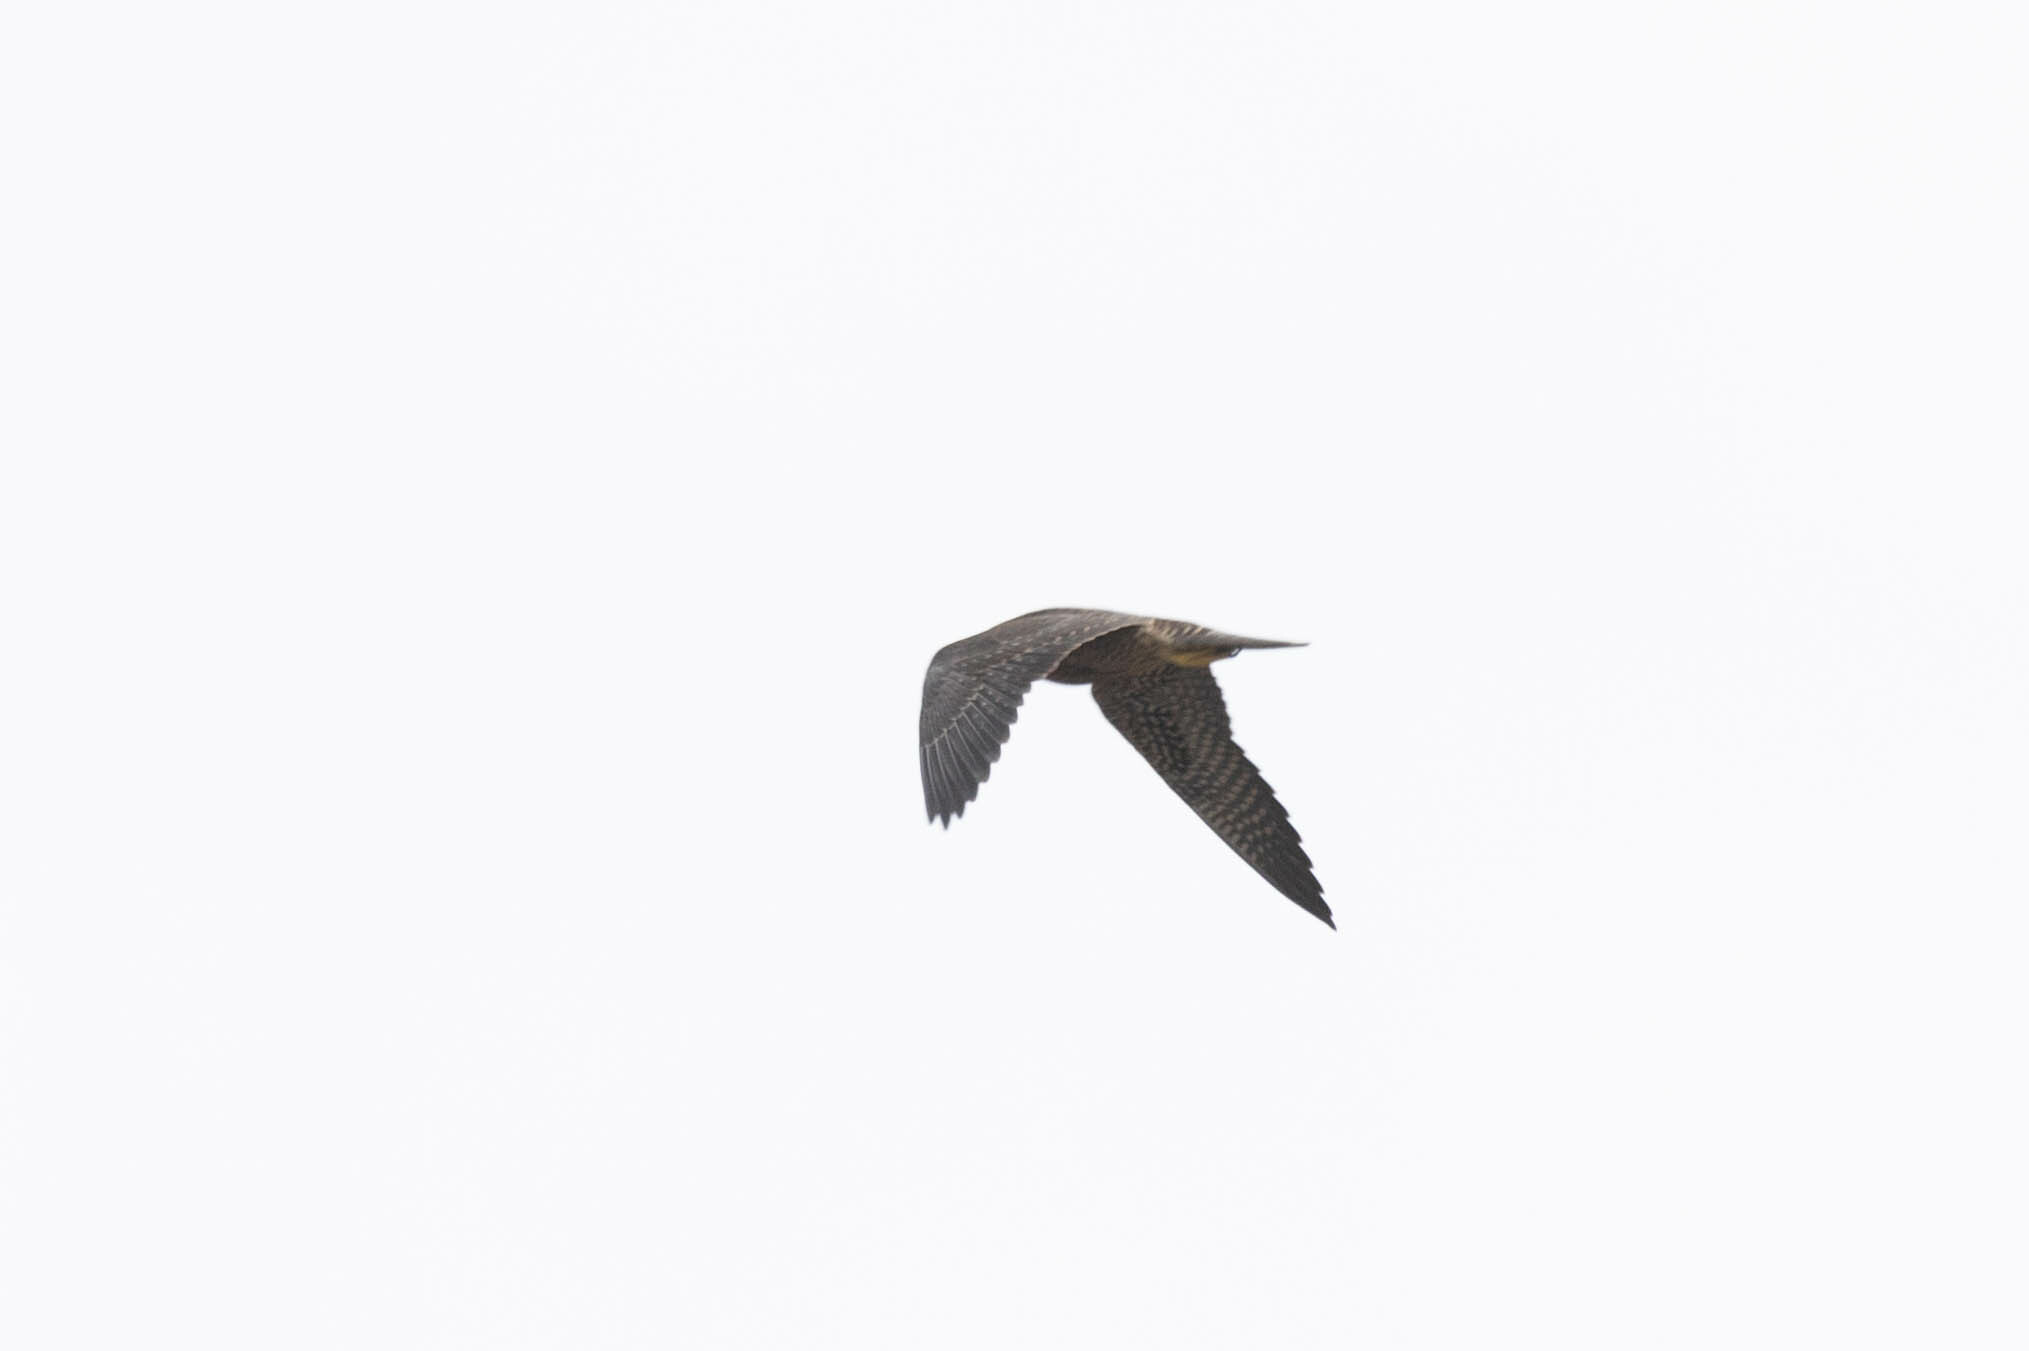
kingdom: Animalia
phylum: Chordata
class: Aves
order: Falconiformes
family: Falconidae
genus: Falco
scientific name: Falco peregrinus
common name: Peregrine falcon
